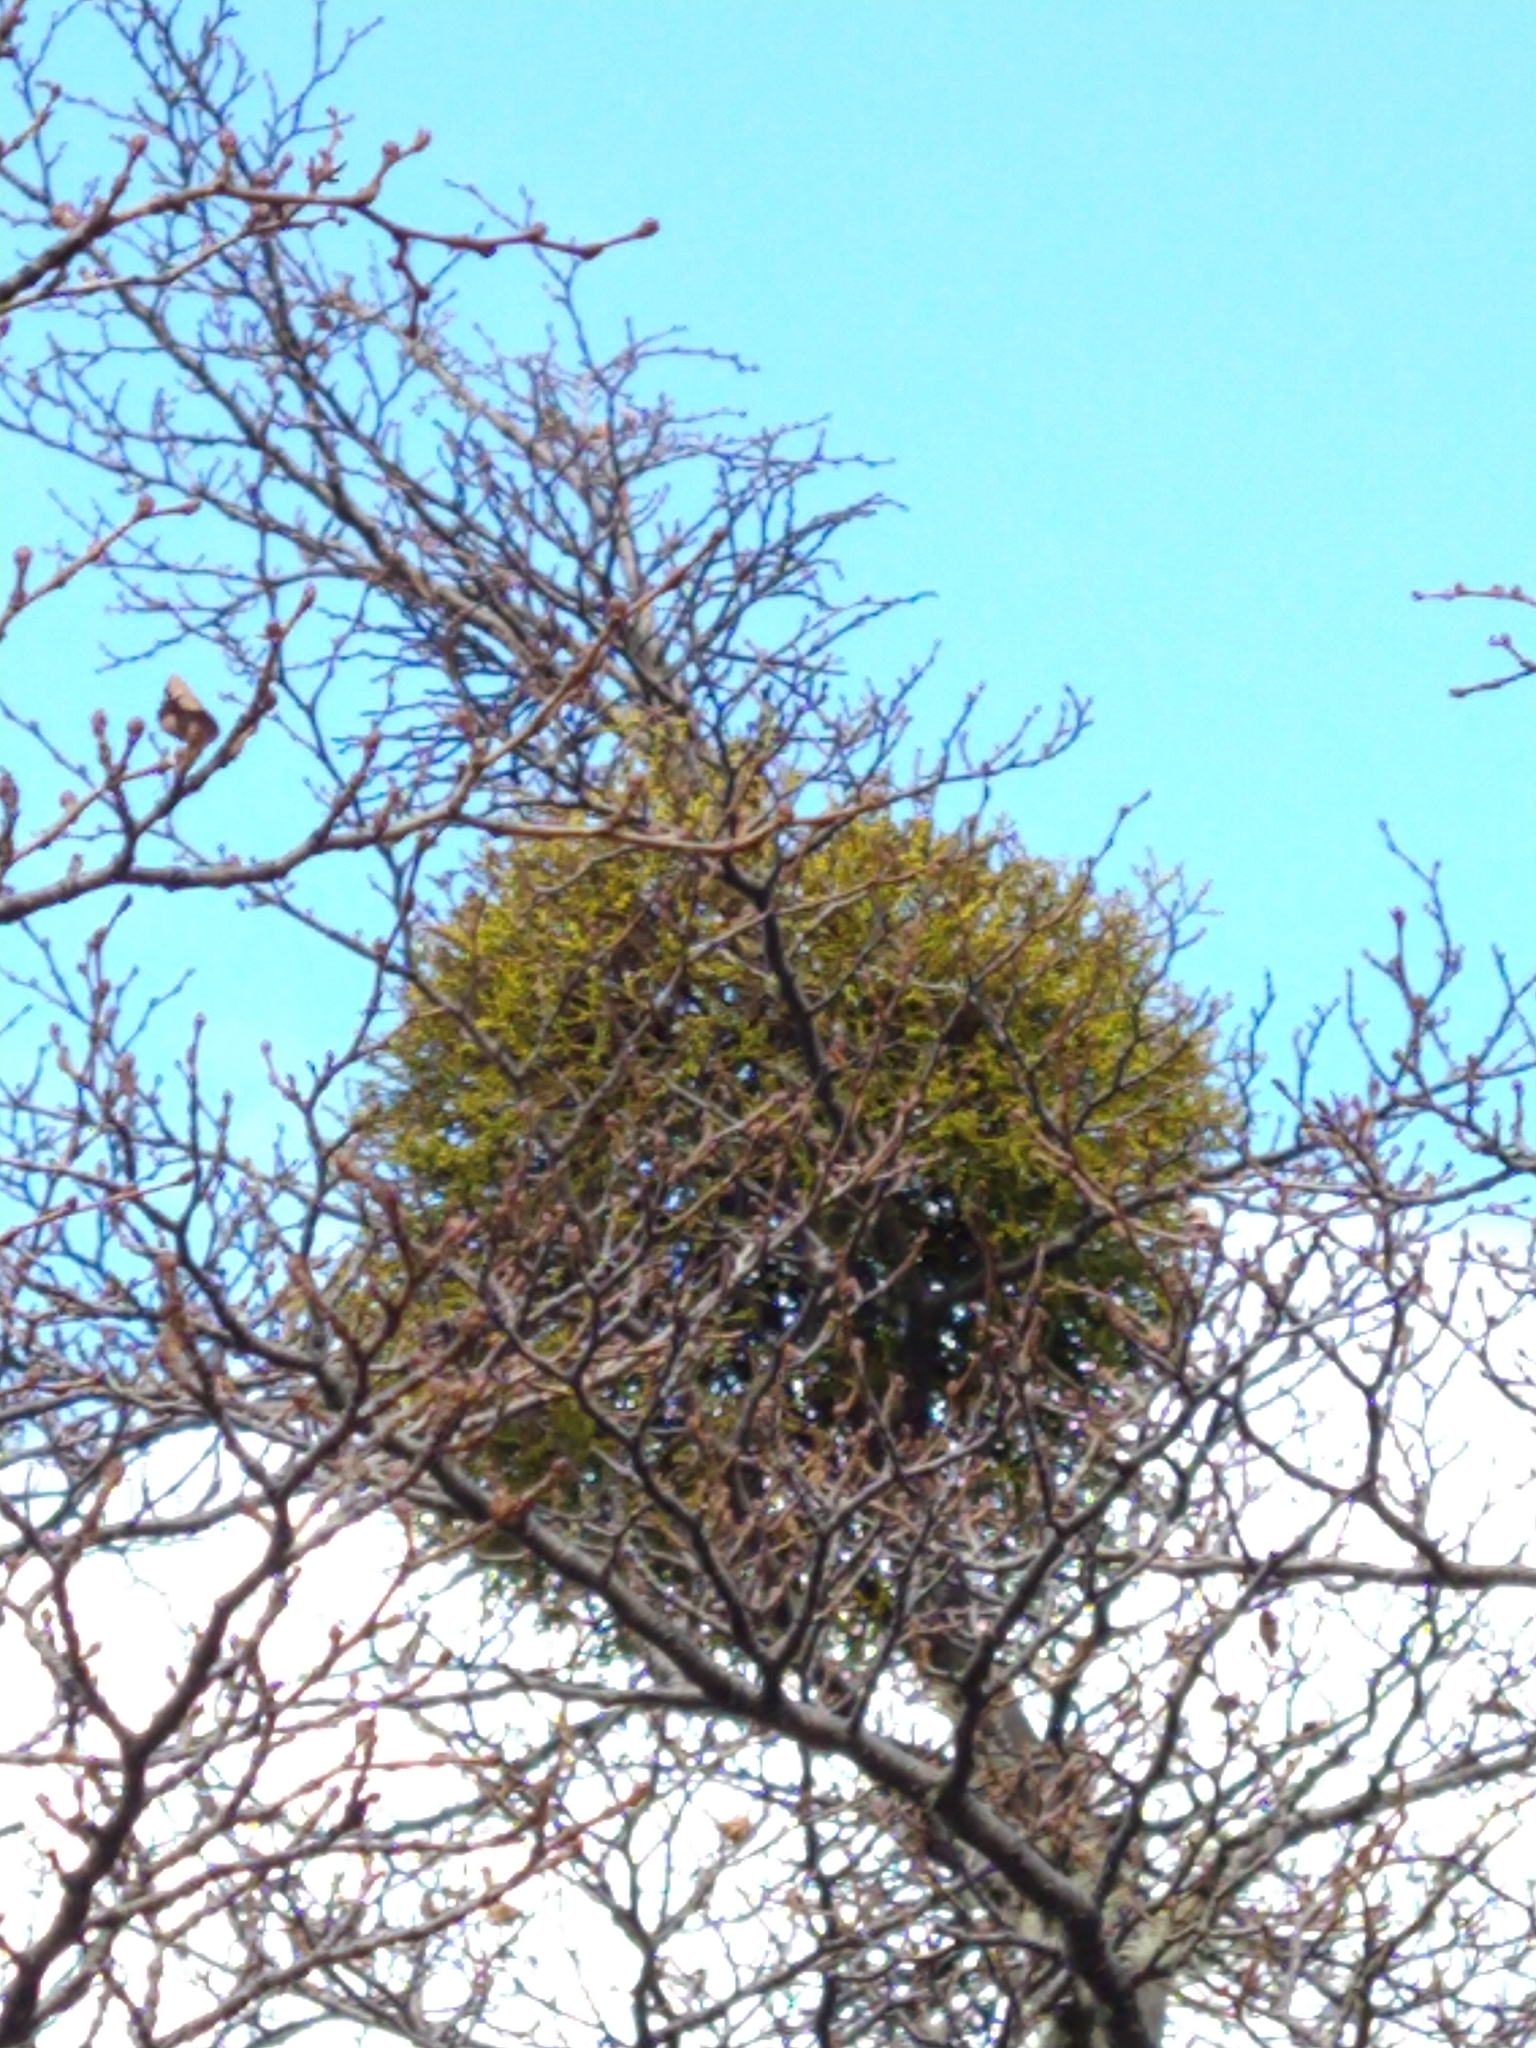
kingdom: Plantae
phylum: Tracheophyta
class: Magnoliopsida
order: Santalales
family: Misodendraceae
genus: Misodendrum
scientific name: Misodendrum punctulatum
